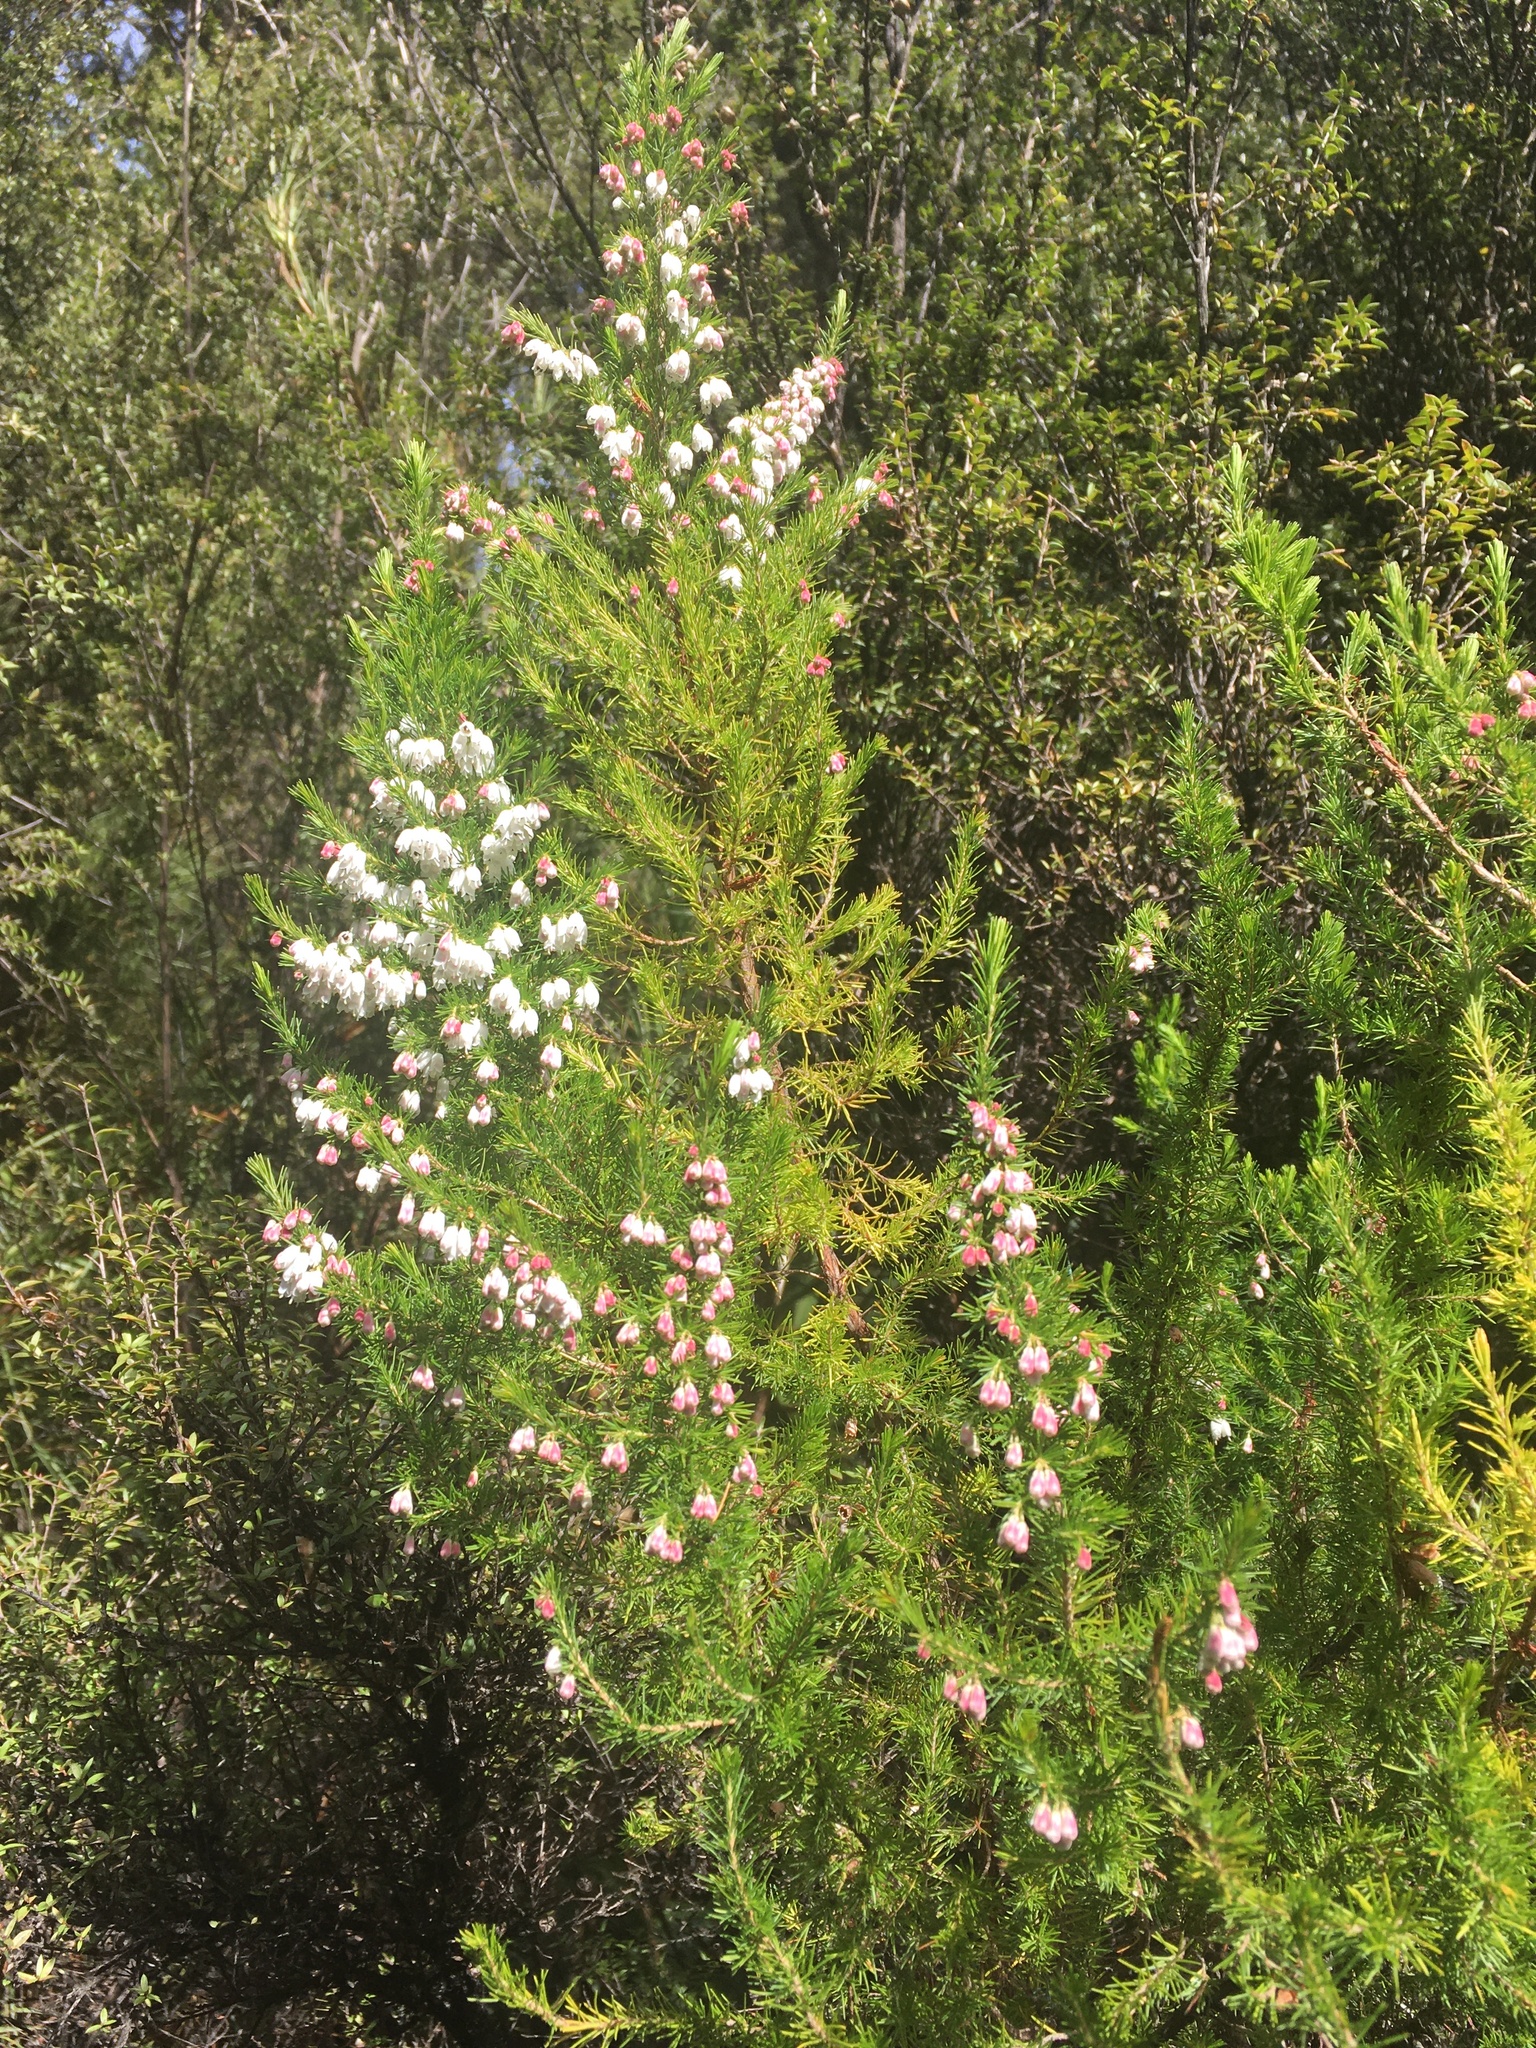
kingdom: Plantae
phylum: Tracheophyta
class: Magnoliopsida
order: Ericales
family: Ericaceae
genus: Erica
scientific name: Erica lusitanica
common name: Spanish heath
